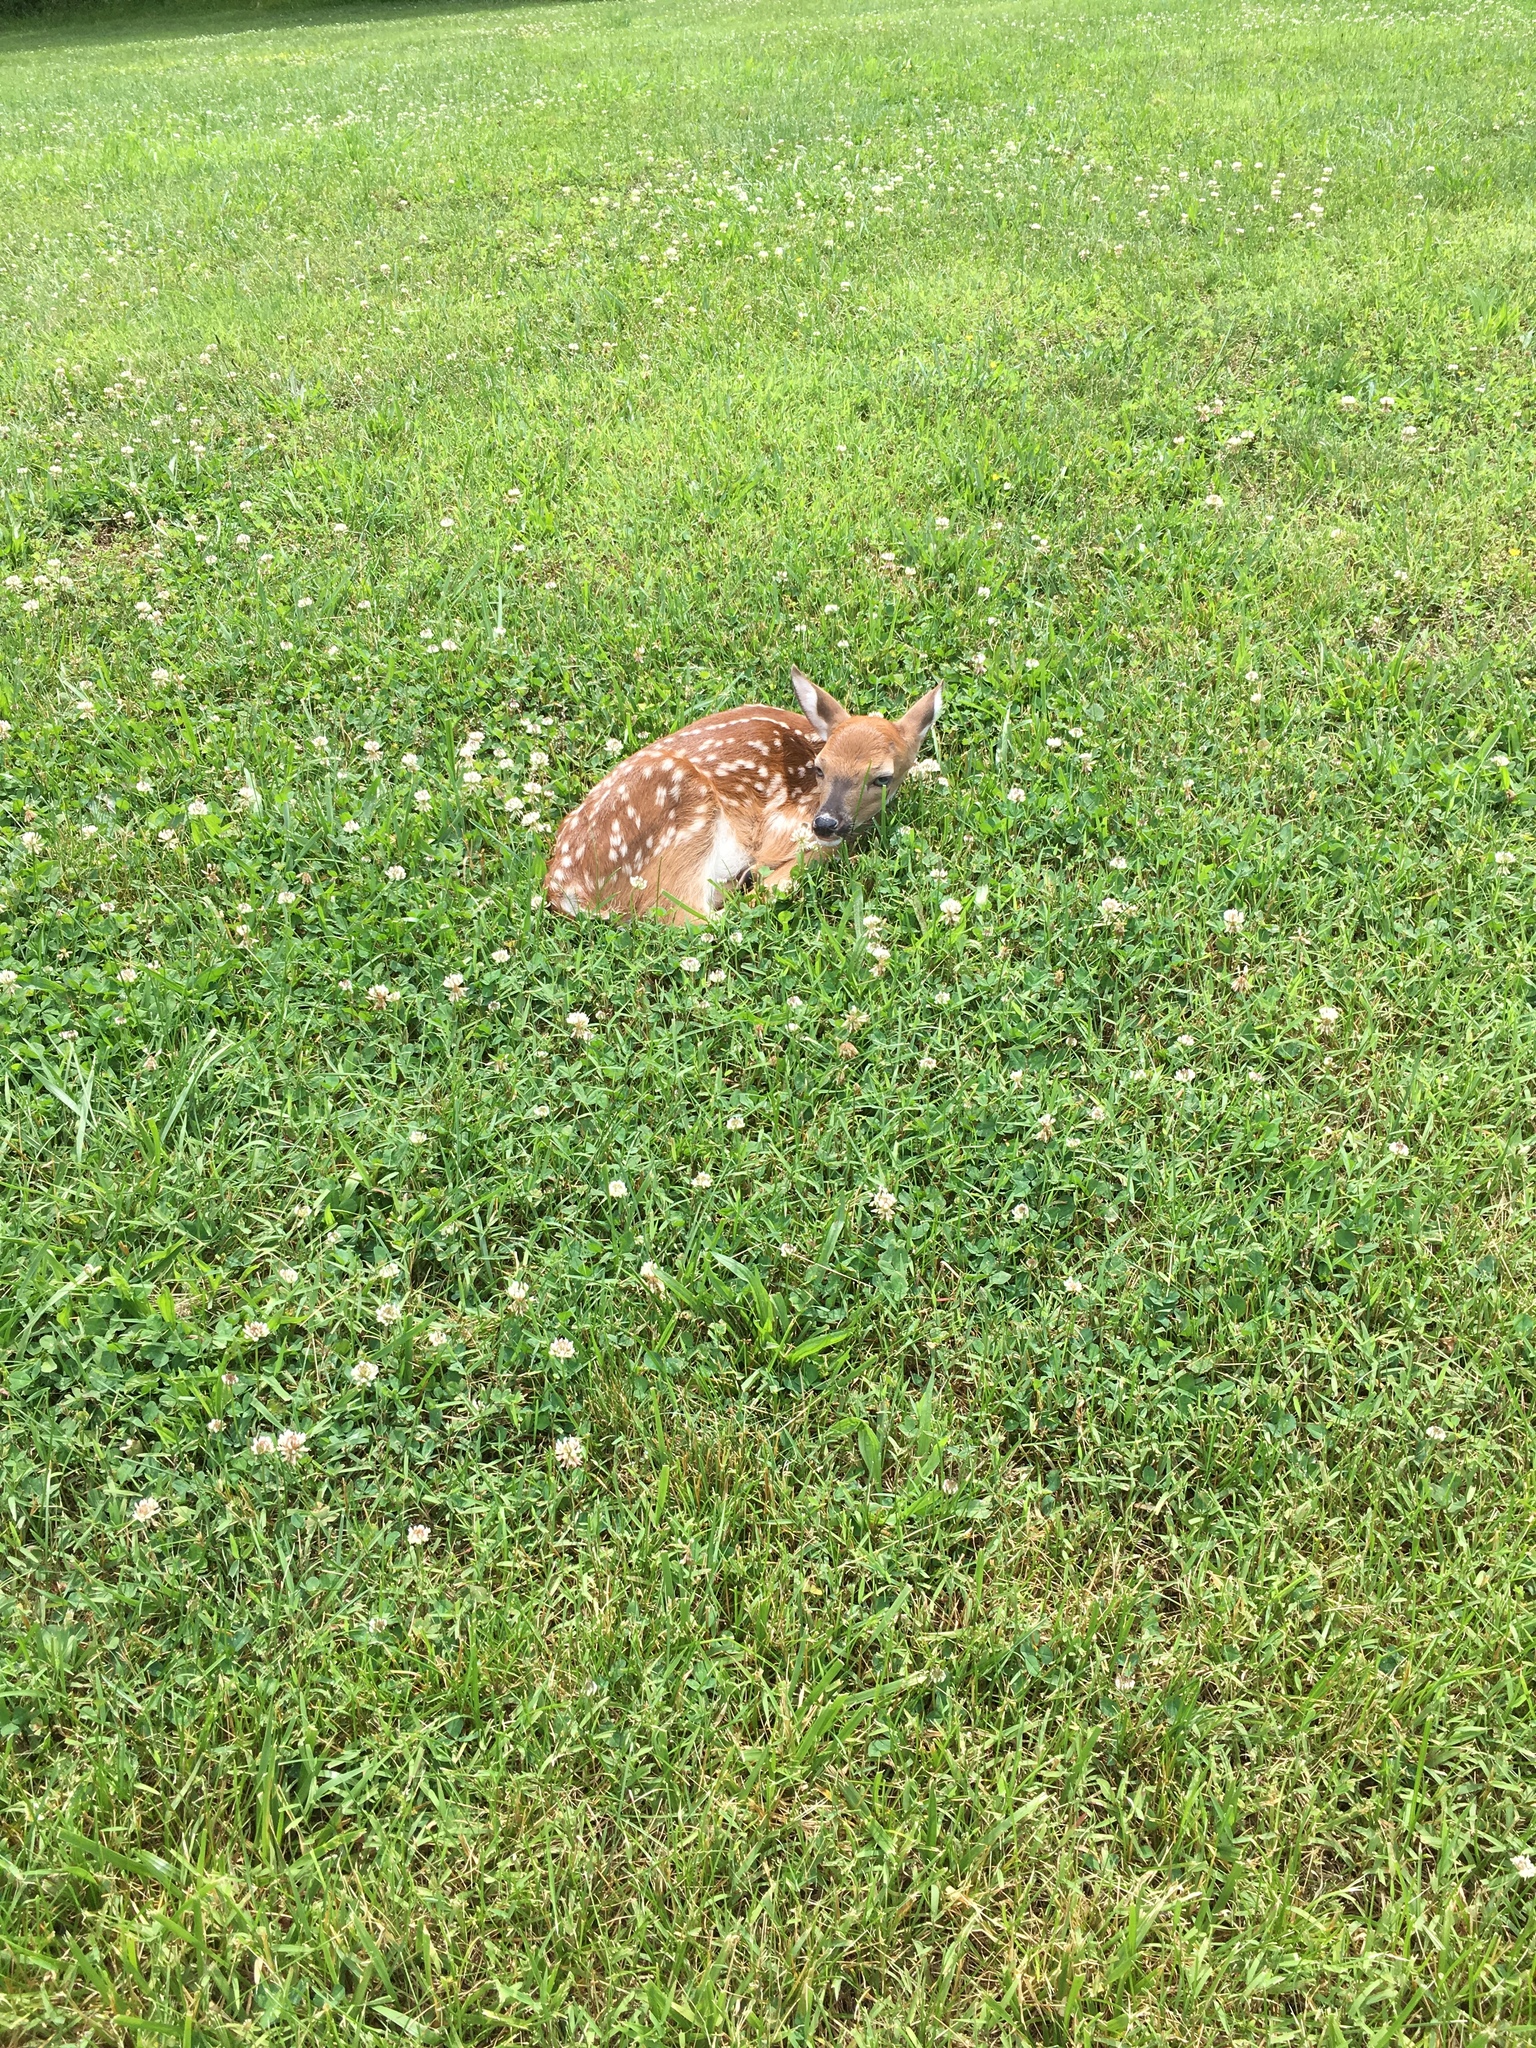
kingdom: Animalia
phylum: Chordata
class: Mammalia
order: Artiodactyla
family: Cervidae
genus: Odocoileus
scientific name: Odocoileus virginianus
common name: White-tailed deer
